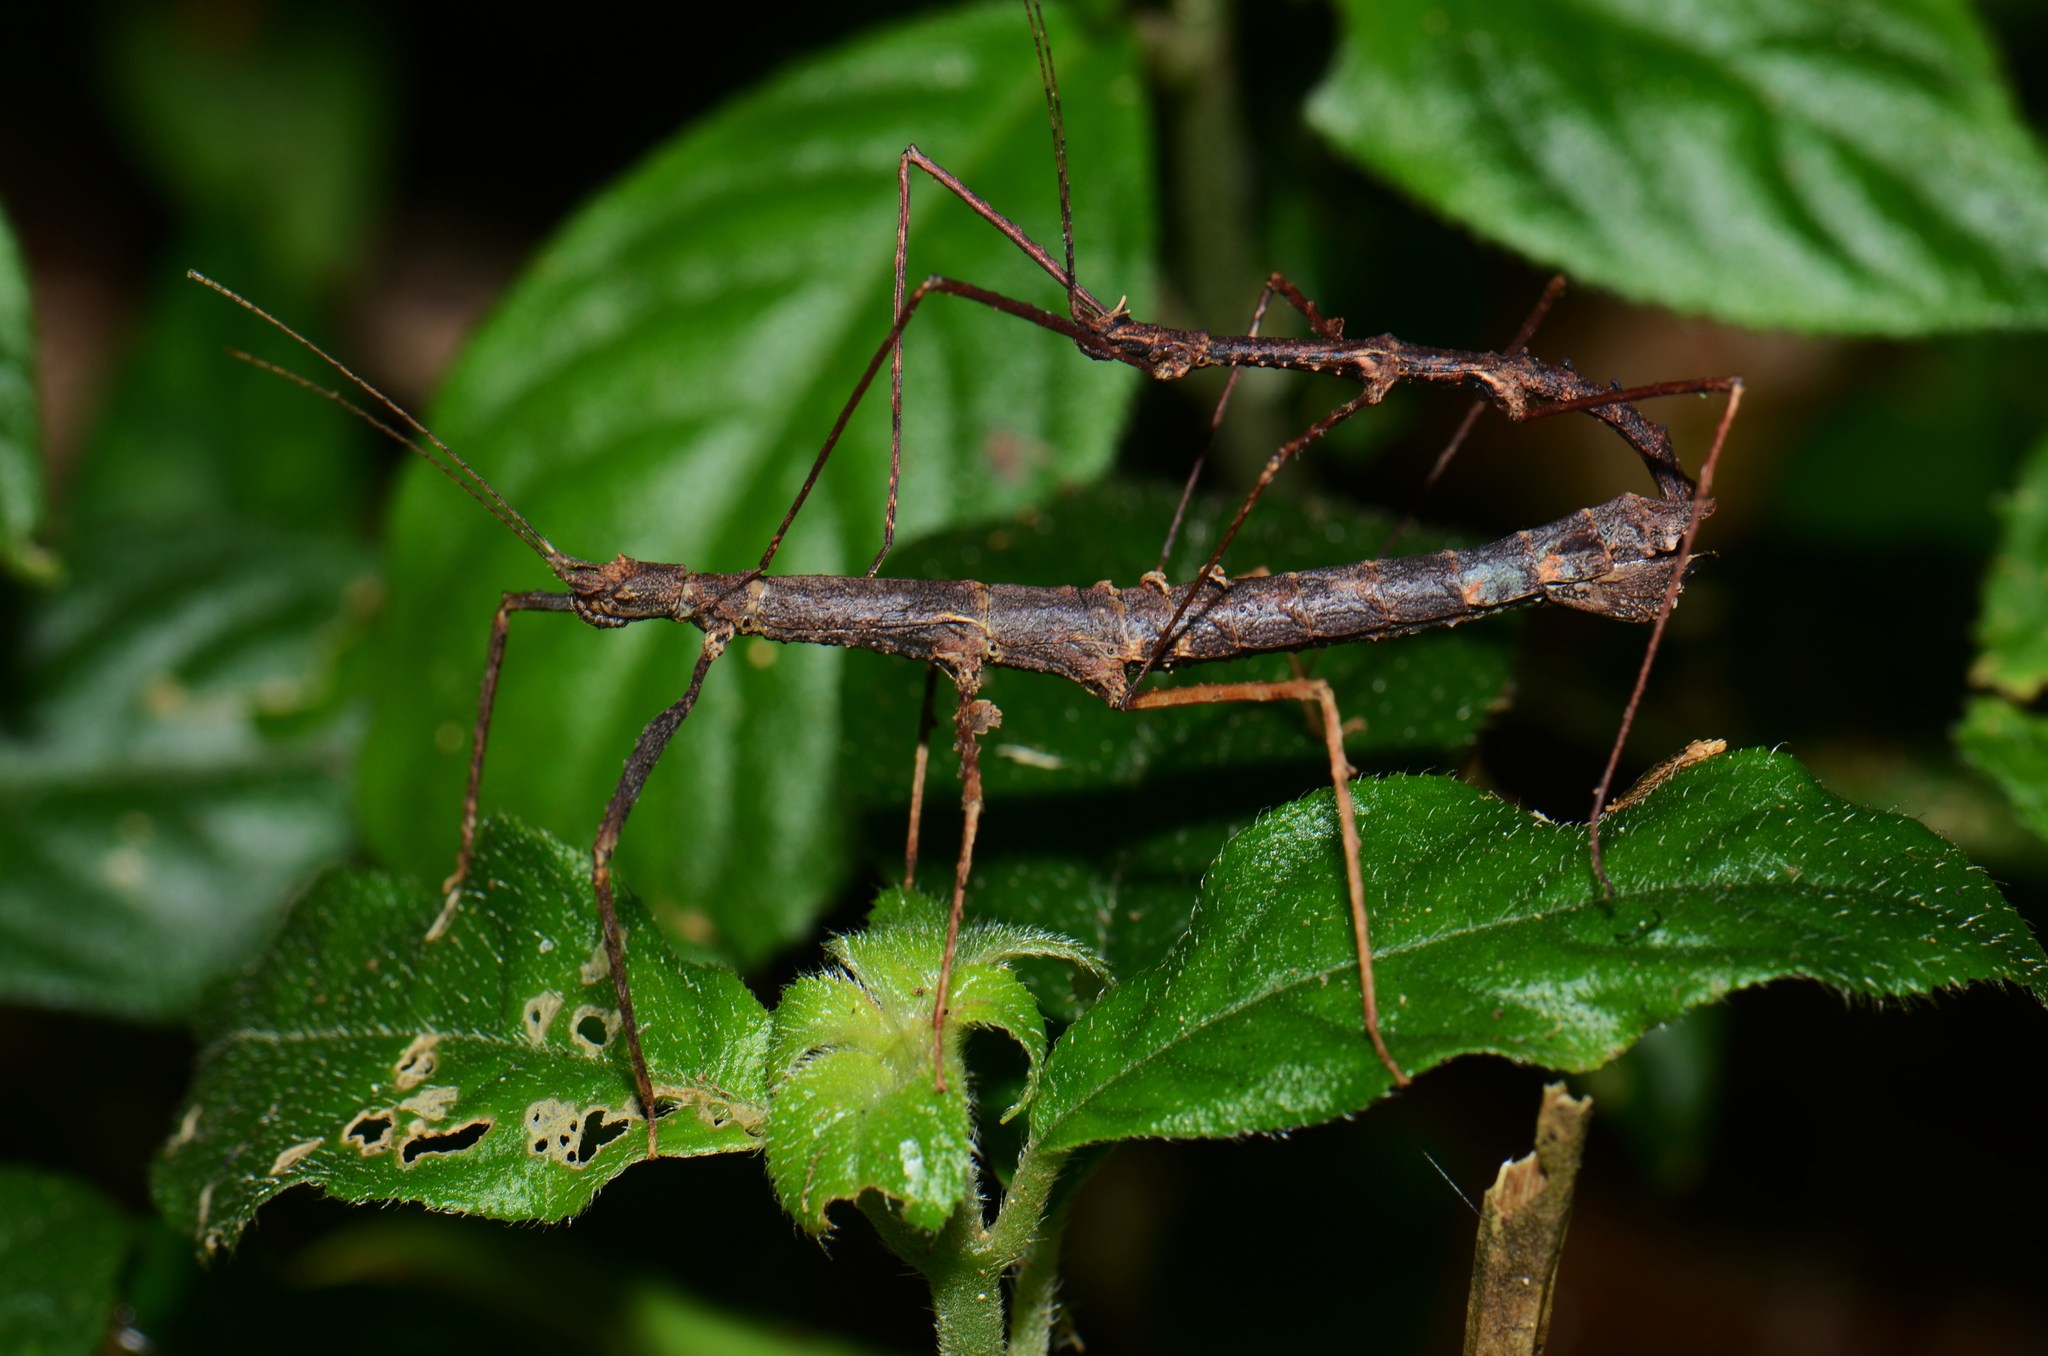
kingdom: Animalia
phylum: Arthropoda
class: Insecta
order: Phasmida
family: Lonchodidae
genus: Stheneboea
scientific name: Stheneboea bivakensis
